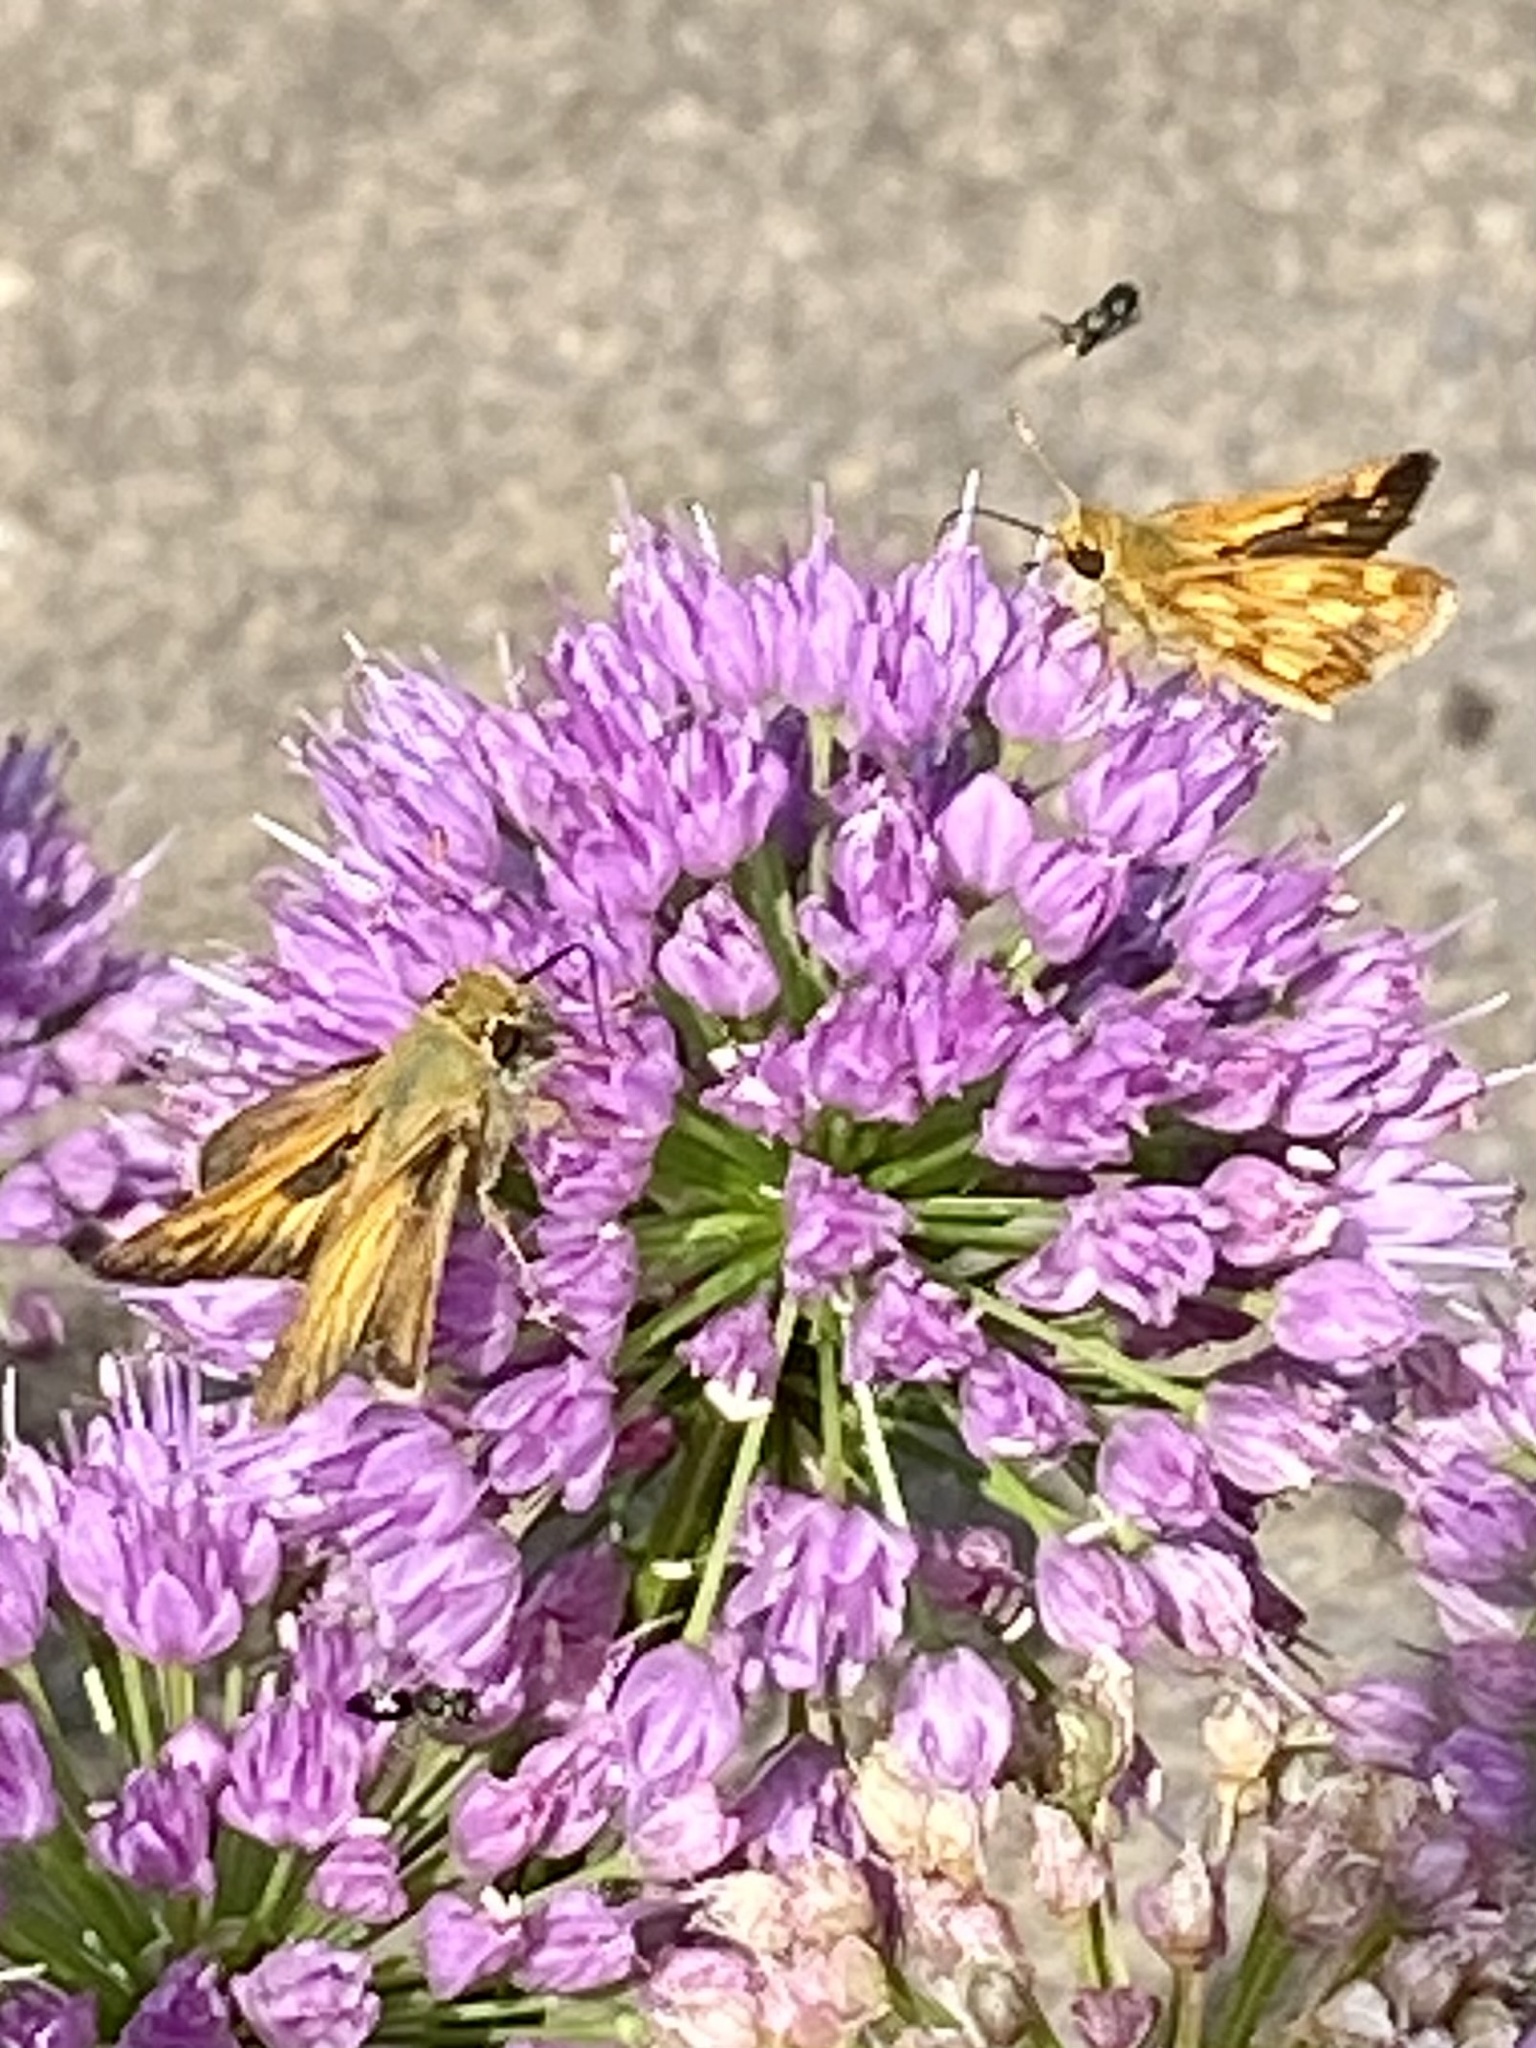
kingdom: Animalia
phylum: Arthropoda
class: Insecta
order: Lepidoptera
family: Hesperiidae
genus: Polites
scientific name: Polites coras
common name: Peck's skipper
